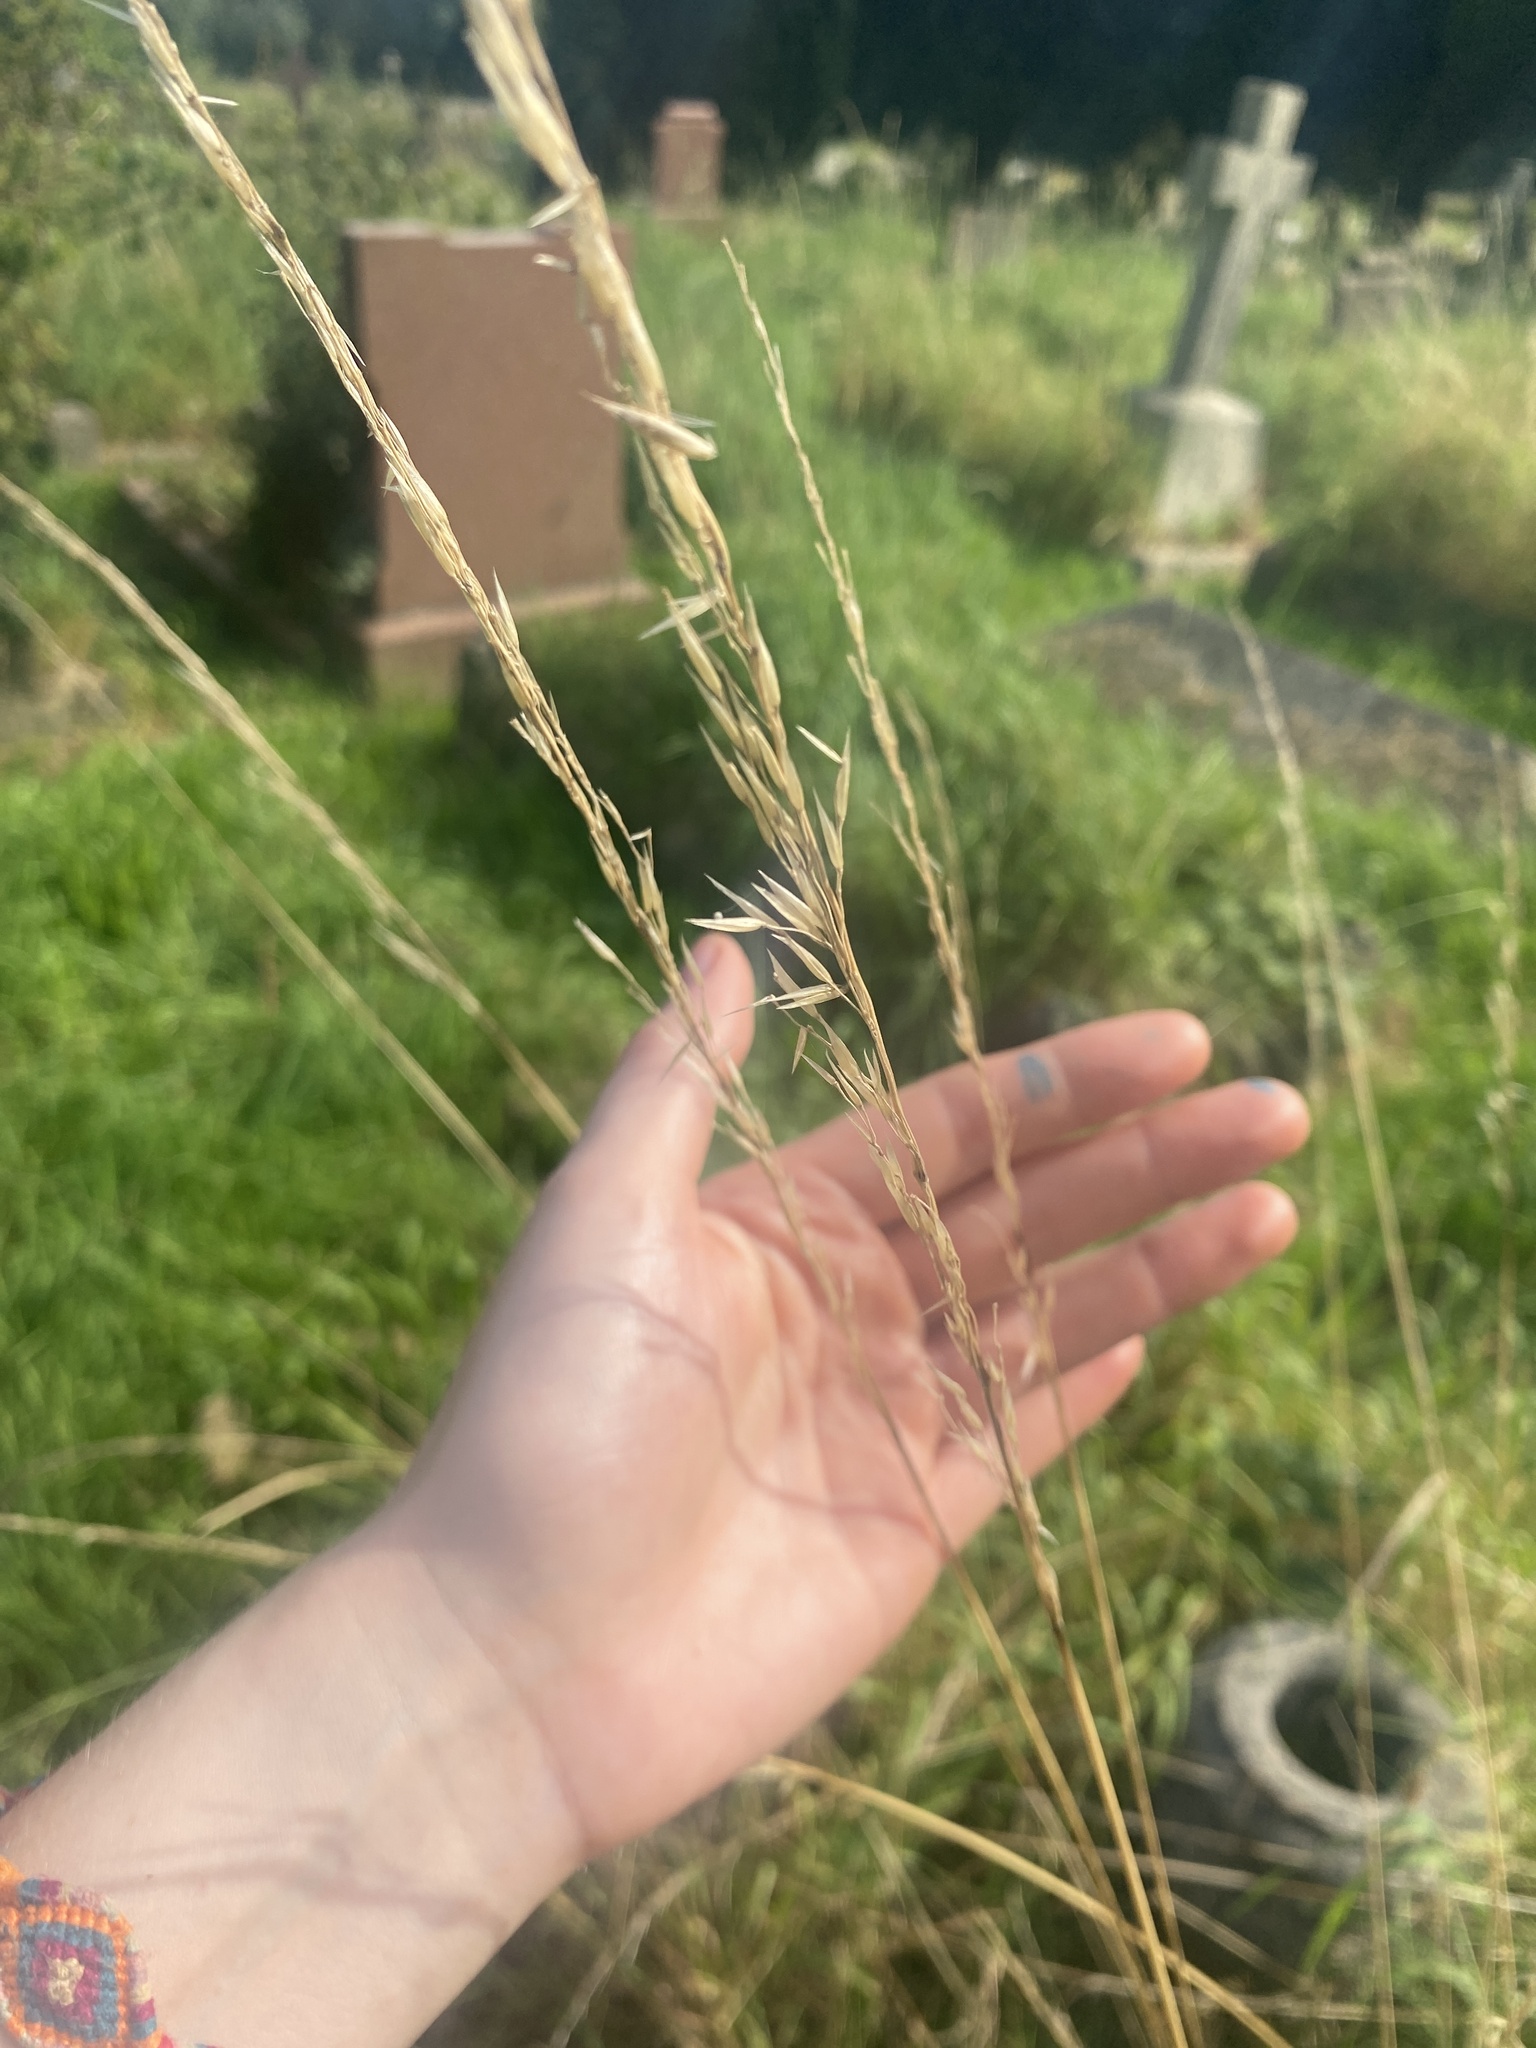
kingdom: Plantae
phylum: Tracheophyta
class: Liliopsida
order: Poales
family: Poaceae
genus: Arrhenatherum
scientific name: Arrhenatherum elatius
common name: Tall oatgrass
